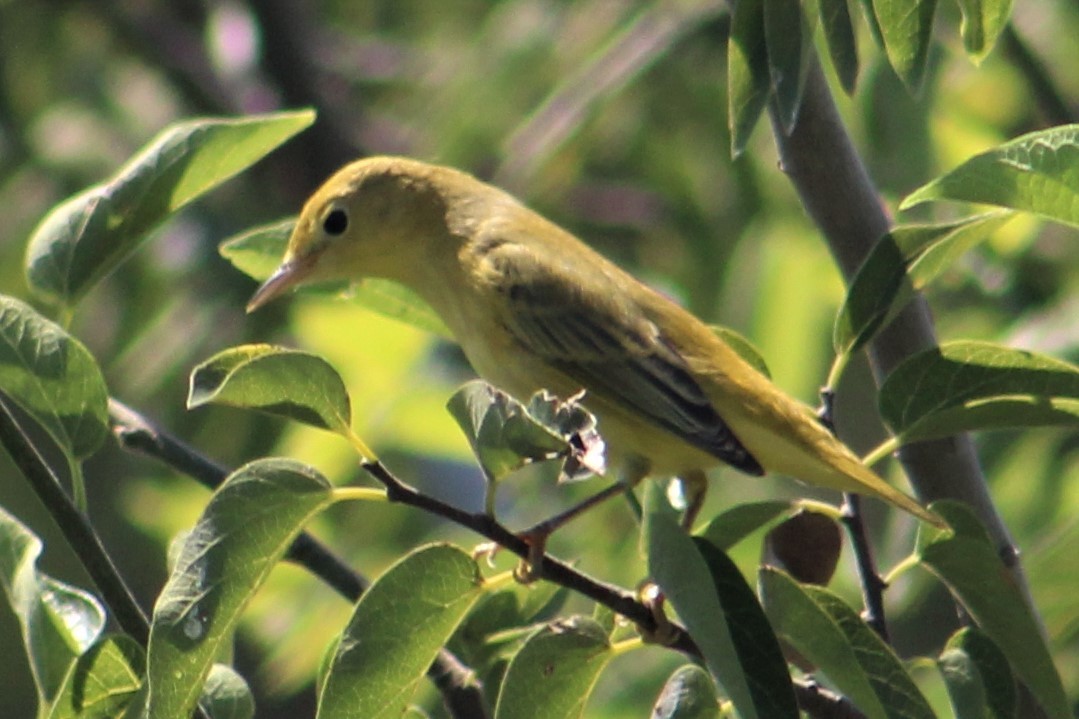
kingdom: Animalia
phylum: Chordata
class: Aves
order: Passeriformes
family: Parulidae
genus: Setophaga
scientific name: Setophaga petechia
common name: Yellow warbler
